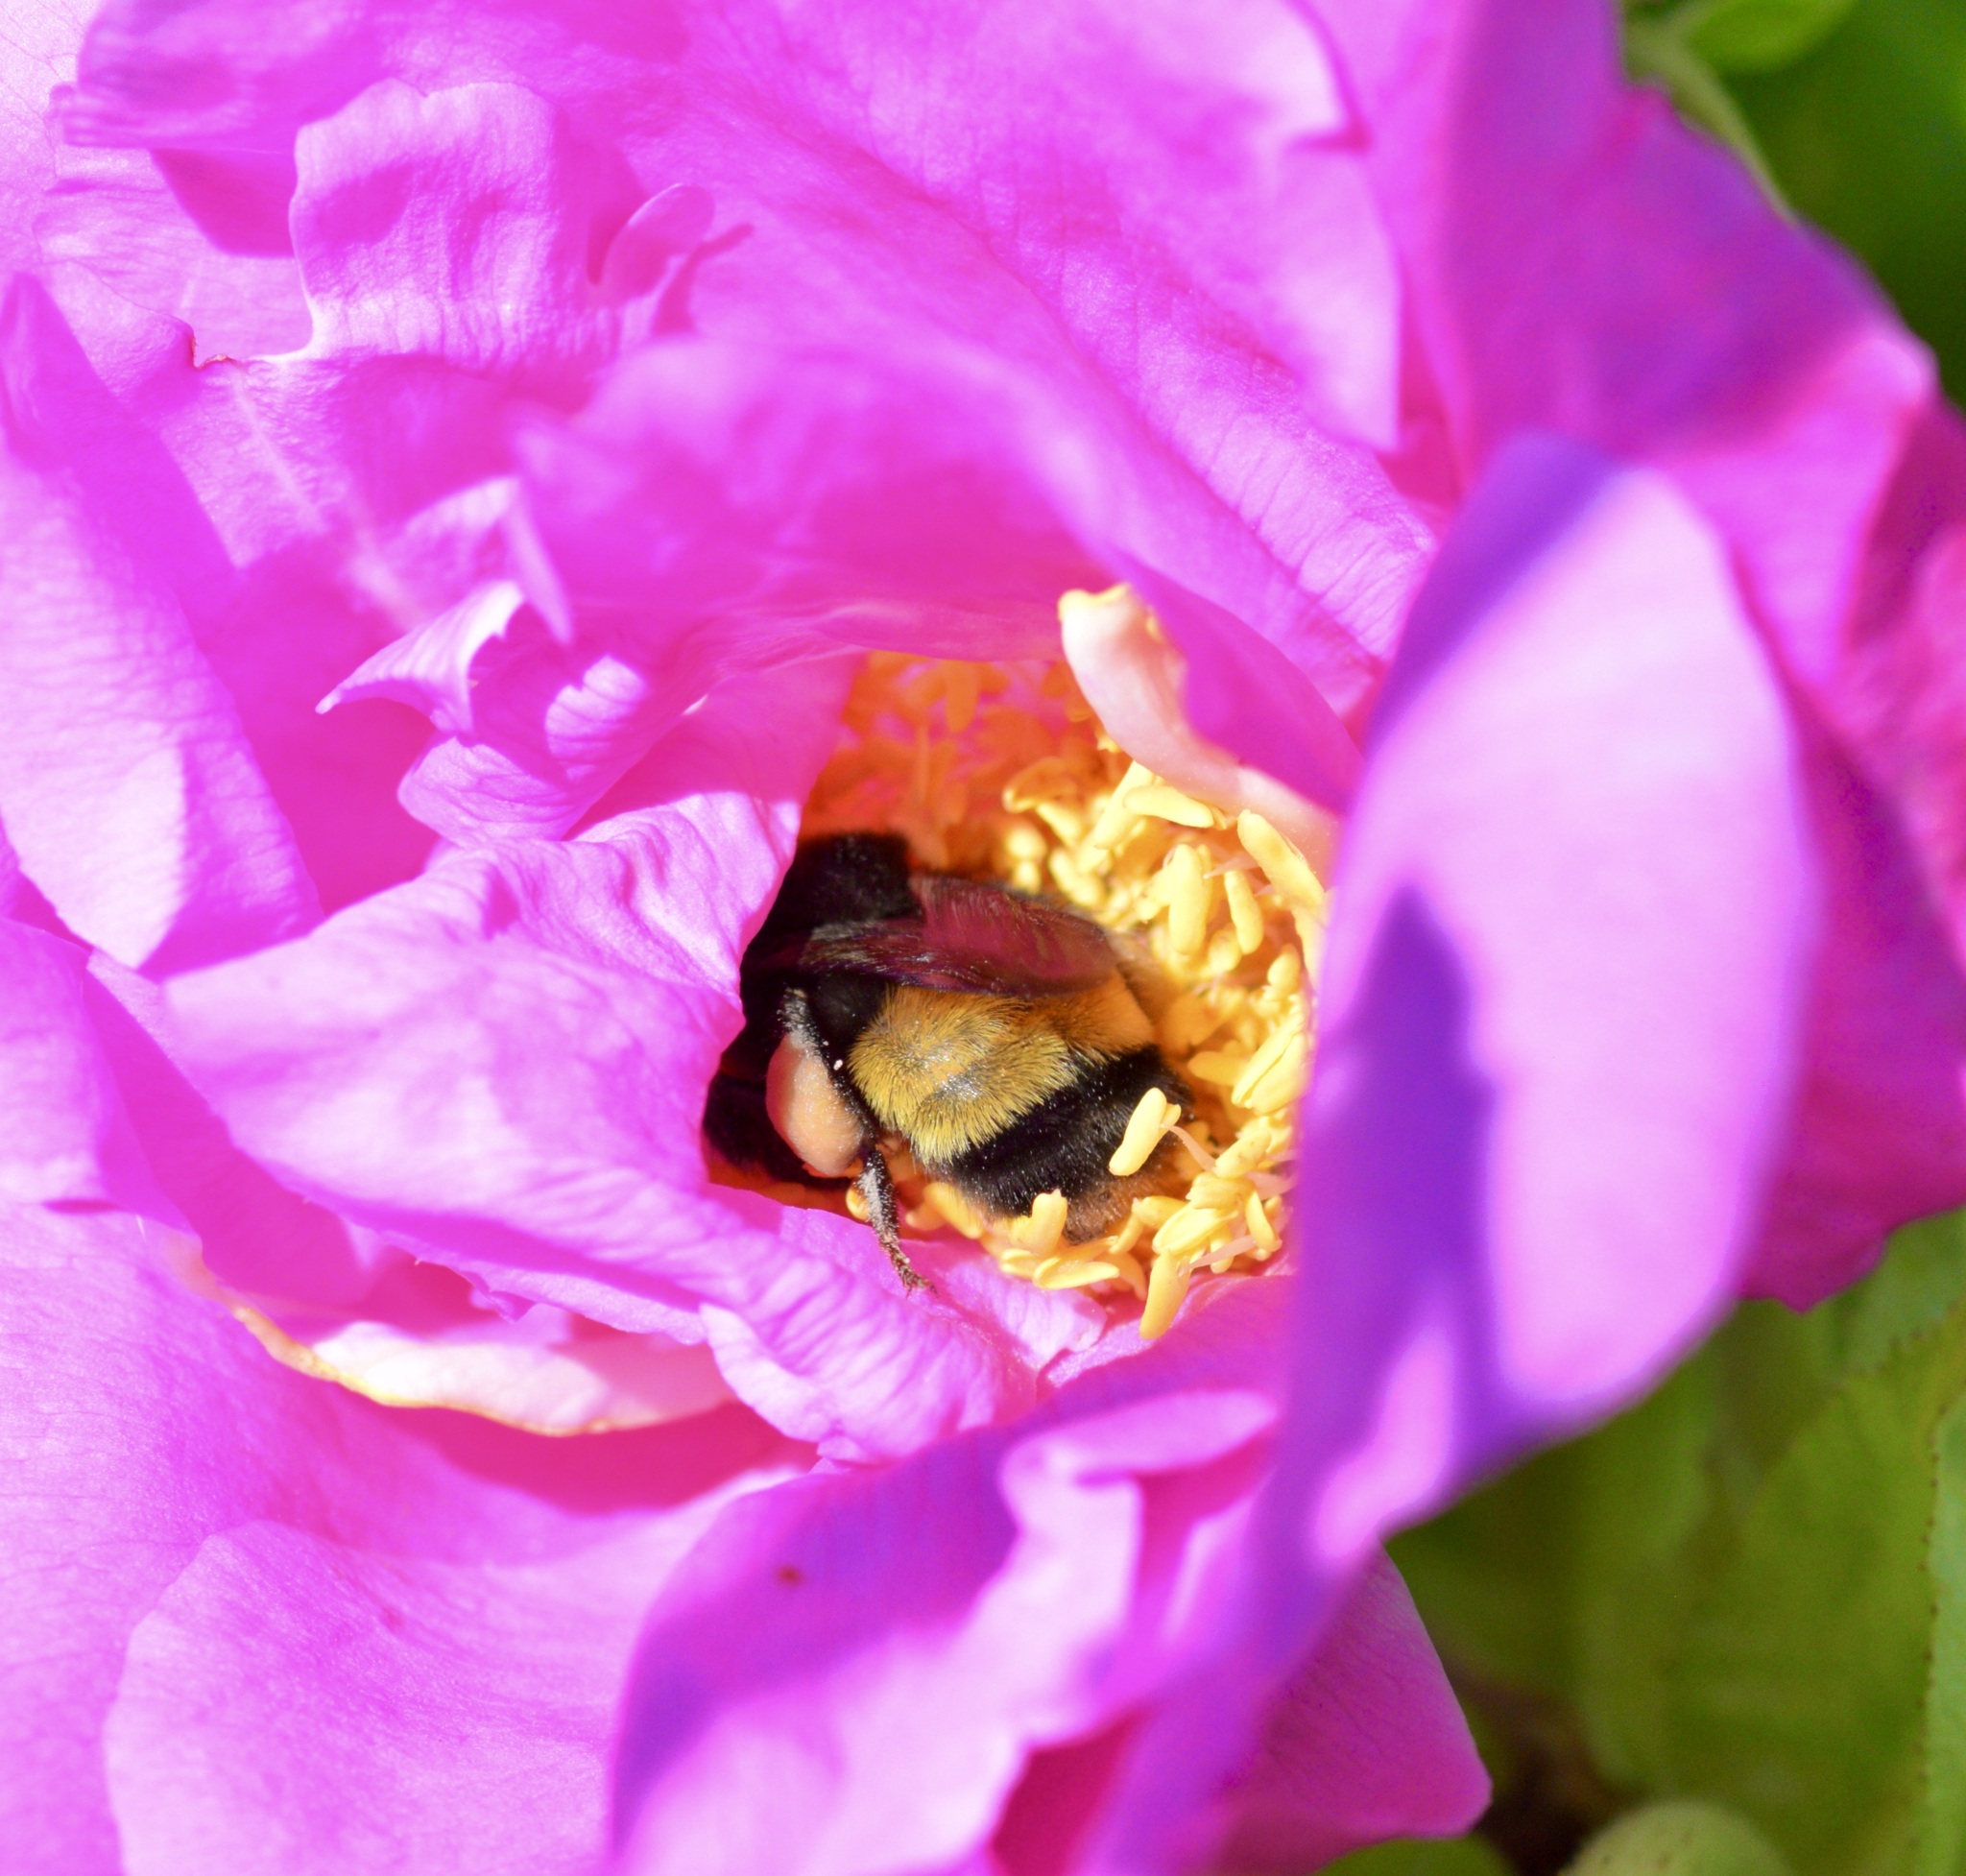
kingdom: Animalia
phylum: Arthropoda
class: Insecta
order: Hymenoptera
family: Apidae
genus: Bombus
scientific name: Bombus terricola
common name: Yellow-banded bumble bee
